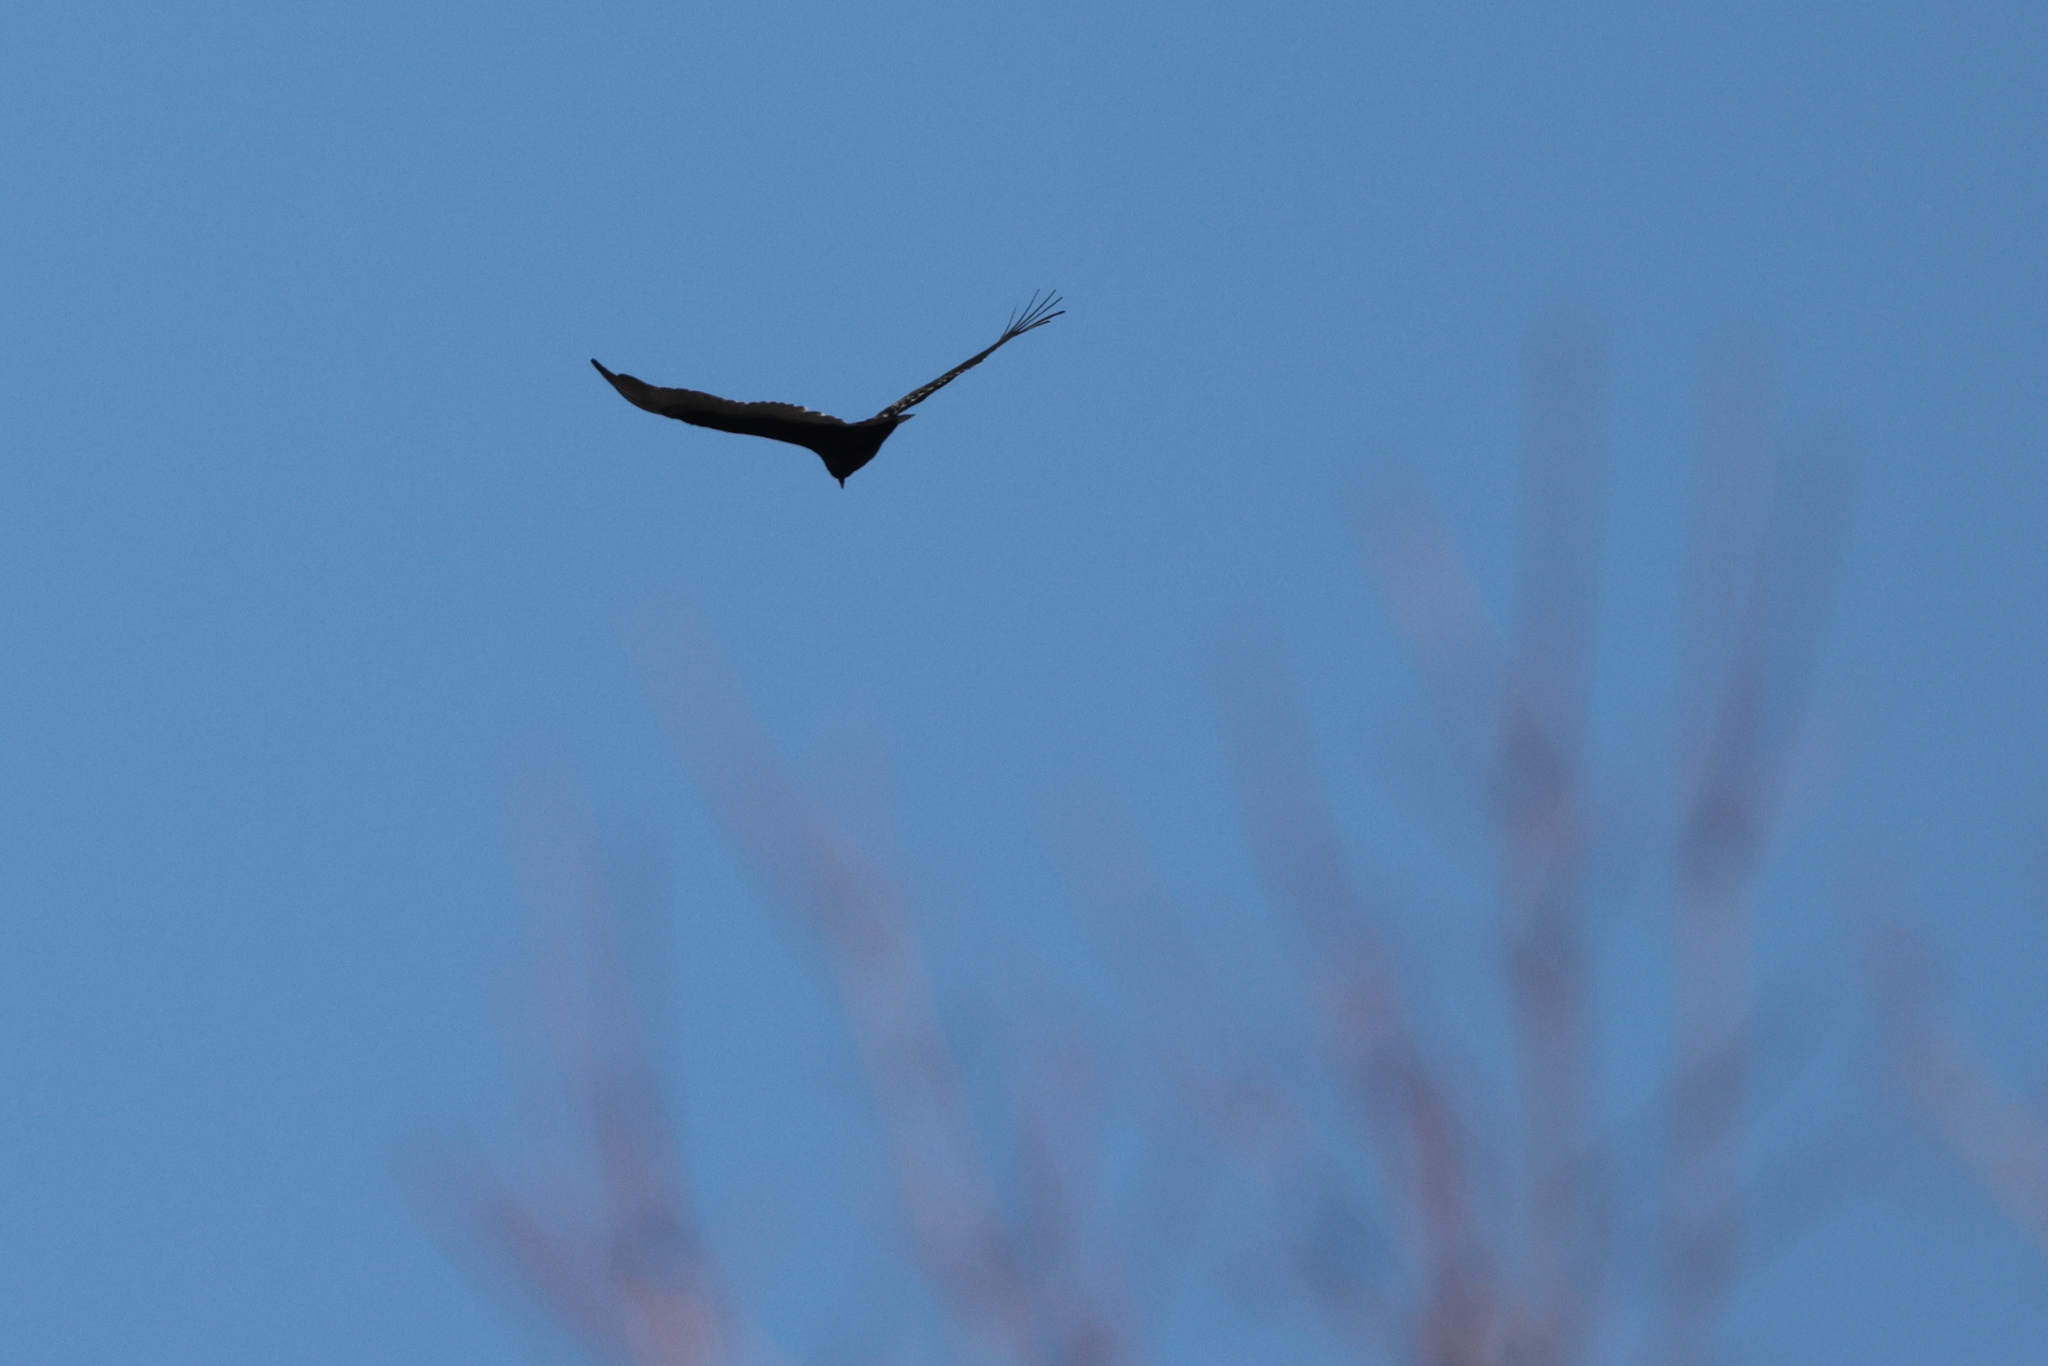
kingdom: Animalia
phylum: Chordata
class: Aves
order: Accipitriformes
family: Cathartidae
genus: Cathartes
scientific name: Cathartes aura
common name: Turkey vulture
